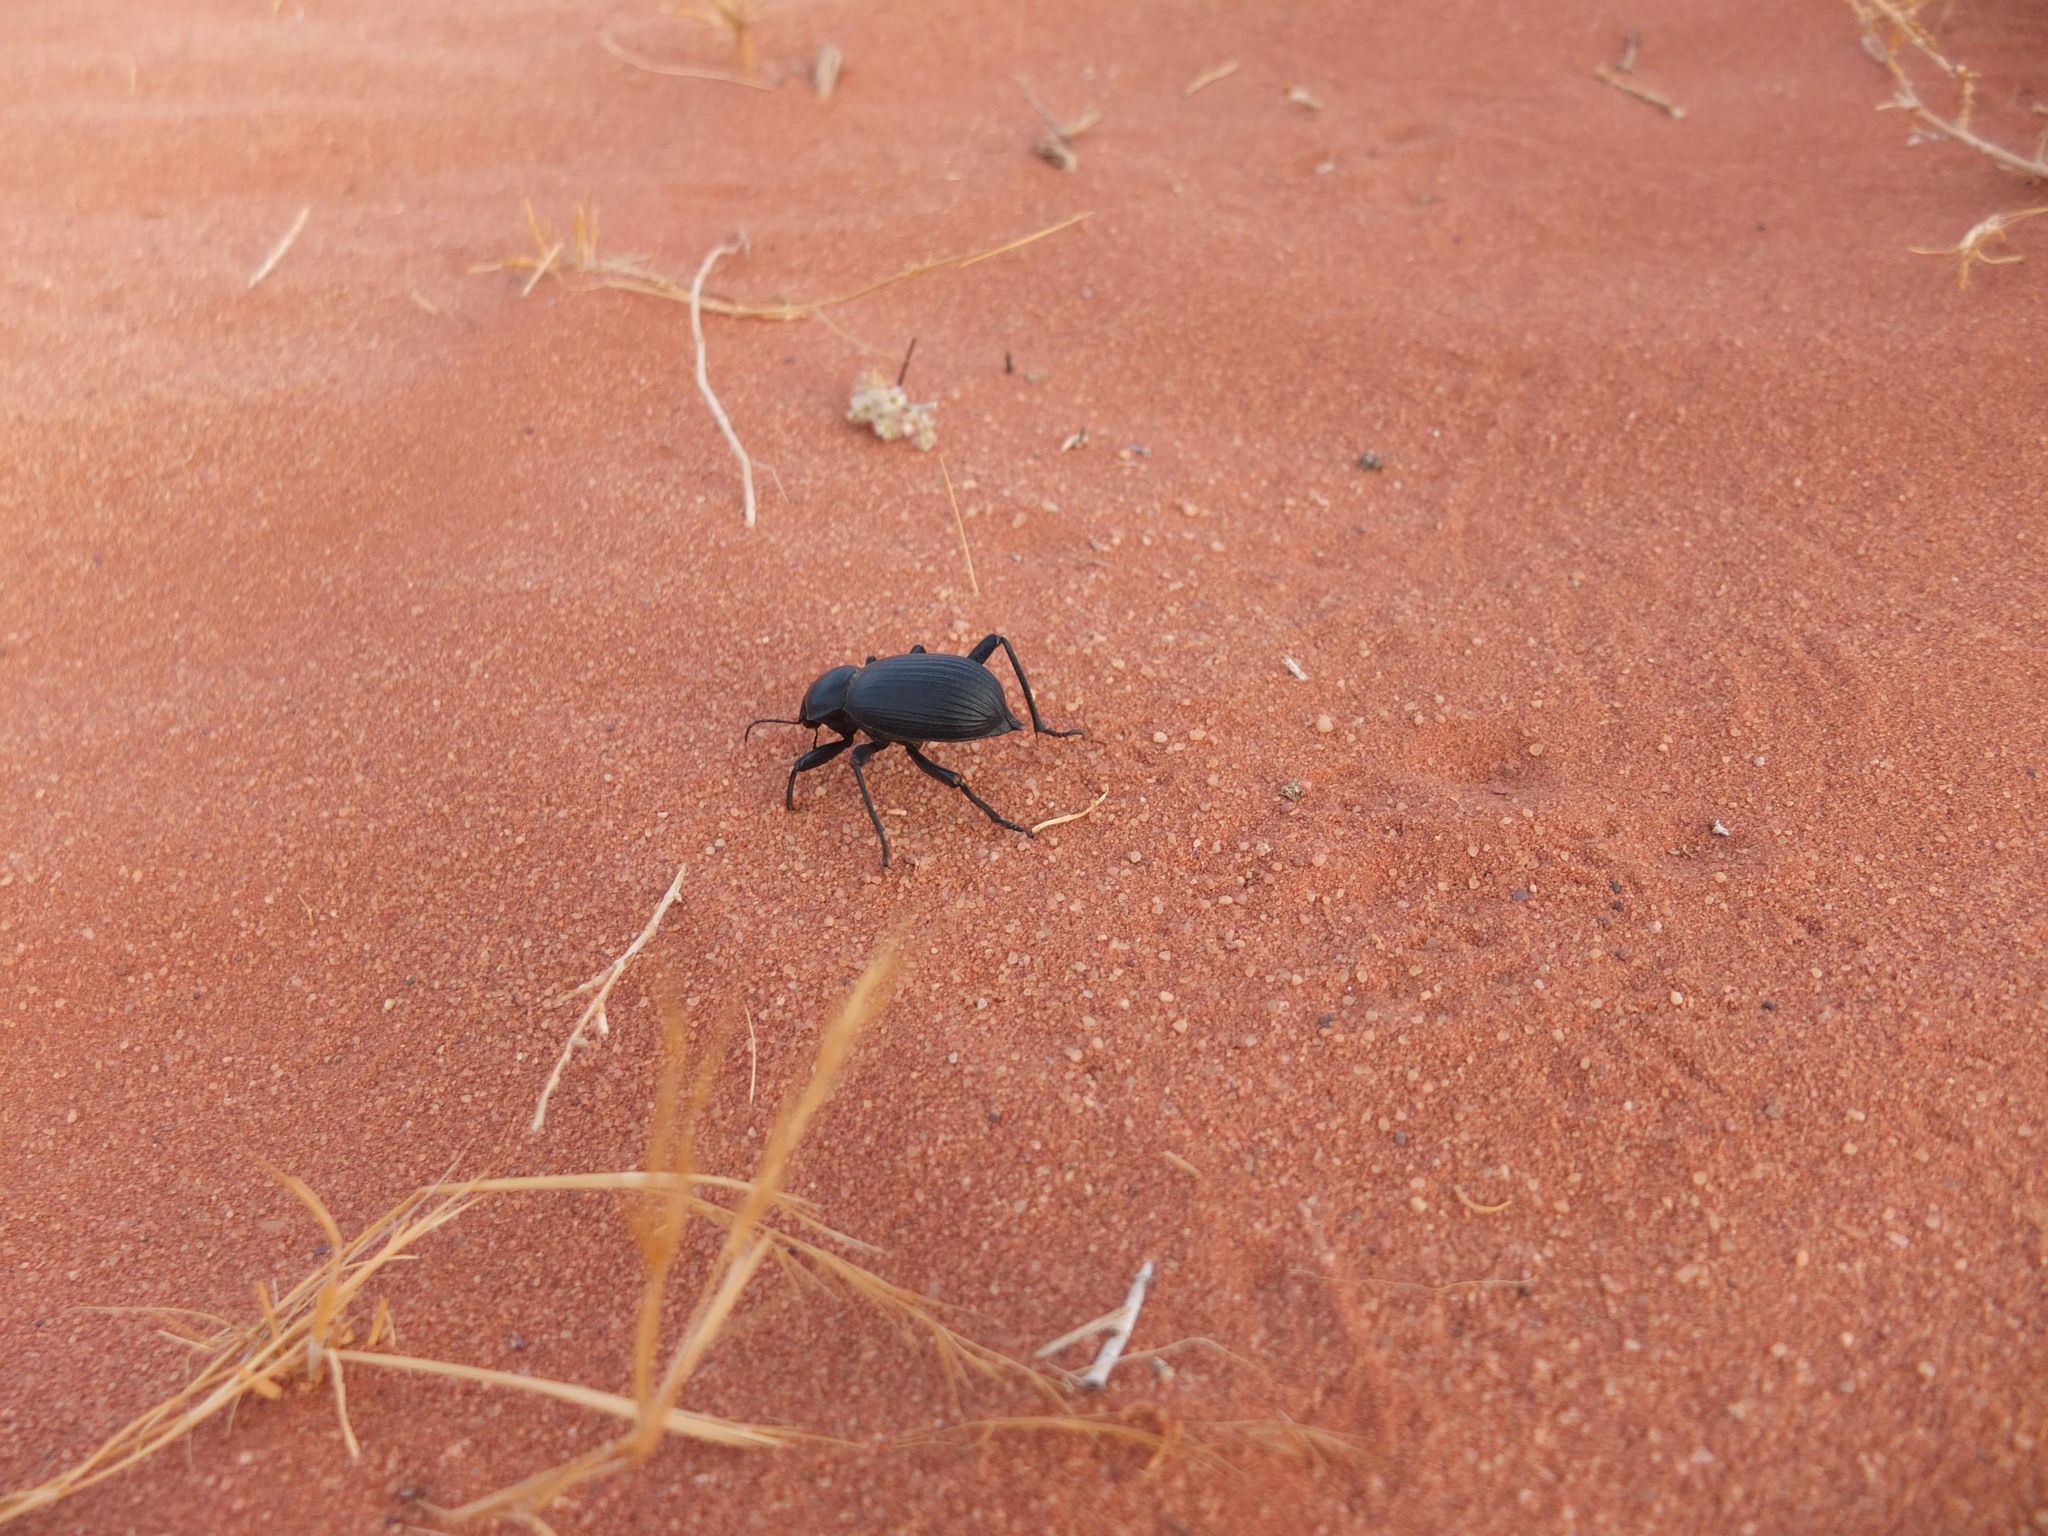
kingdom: Animalia
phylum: Arthropoda
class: Insecta
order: Coleoptera
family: Tenebrionidae
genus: Blaps
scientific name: Blaps polychresta
